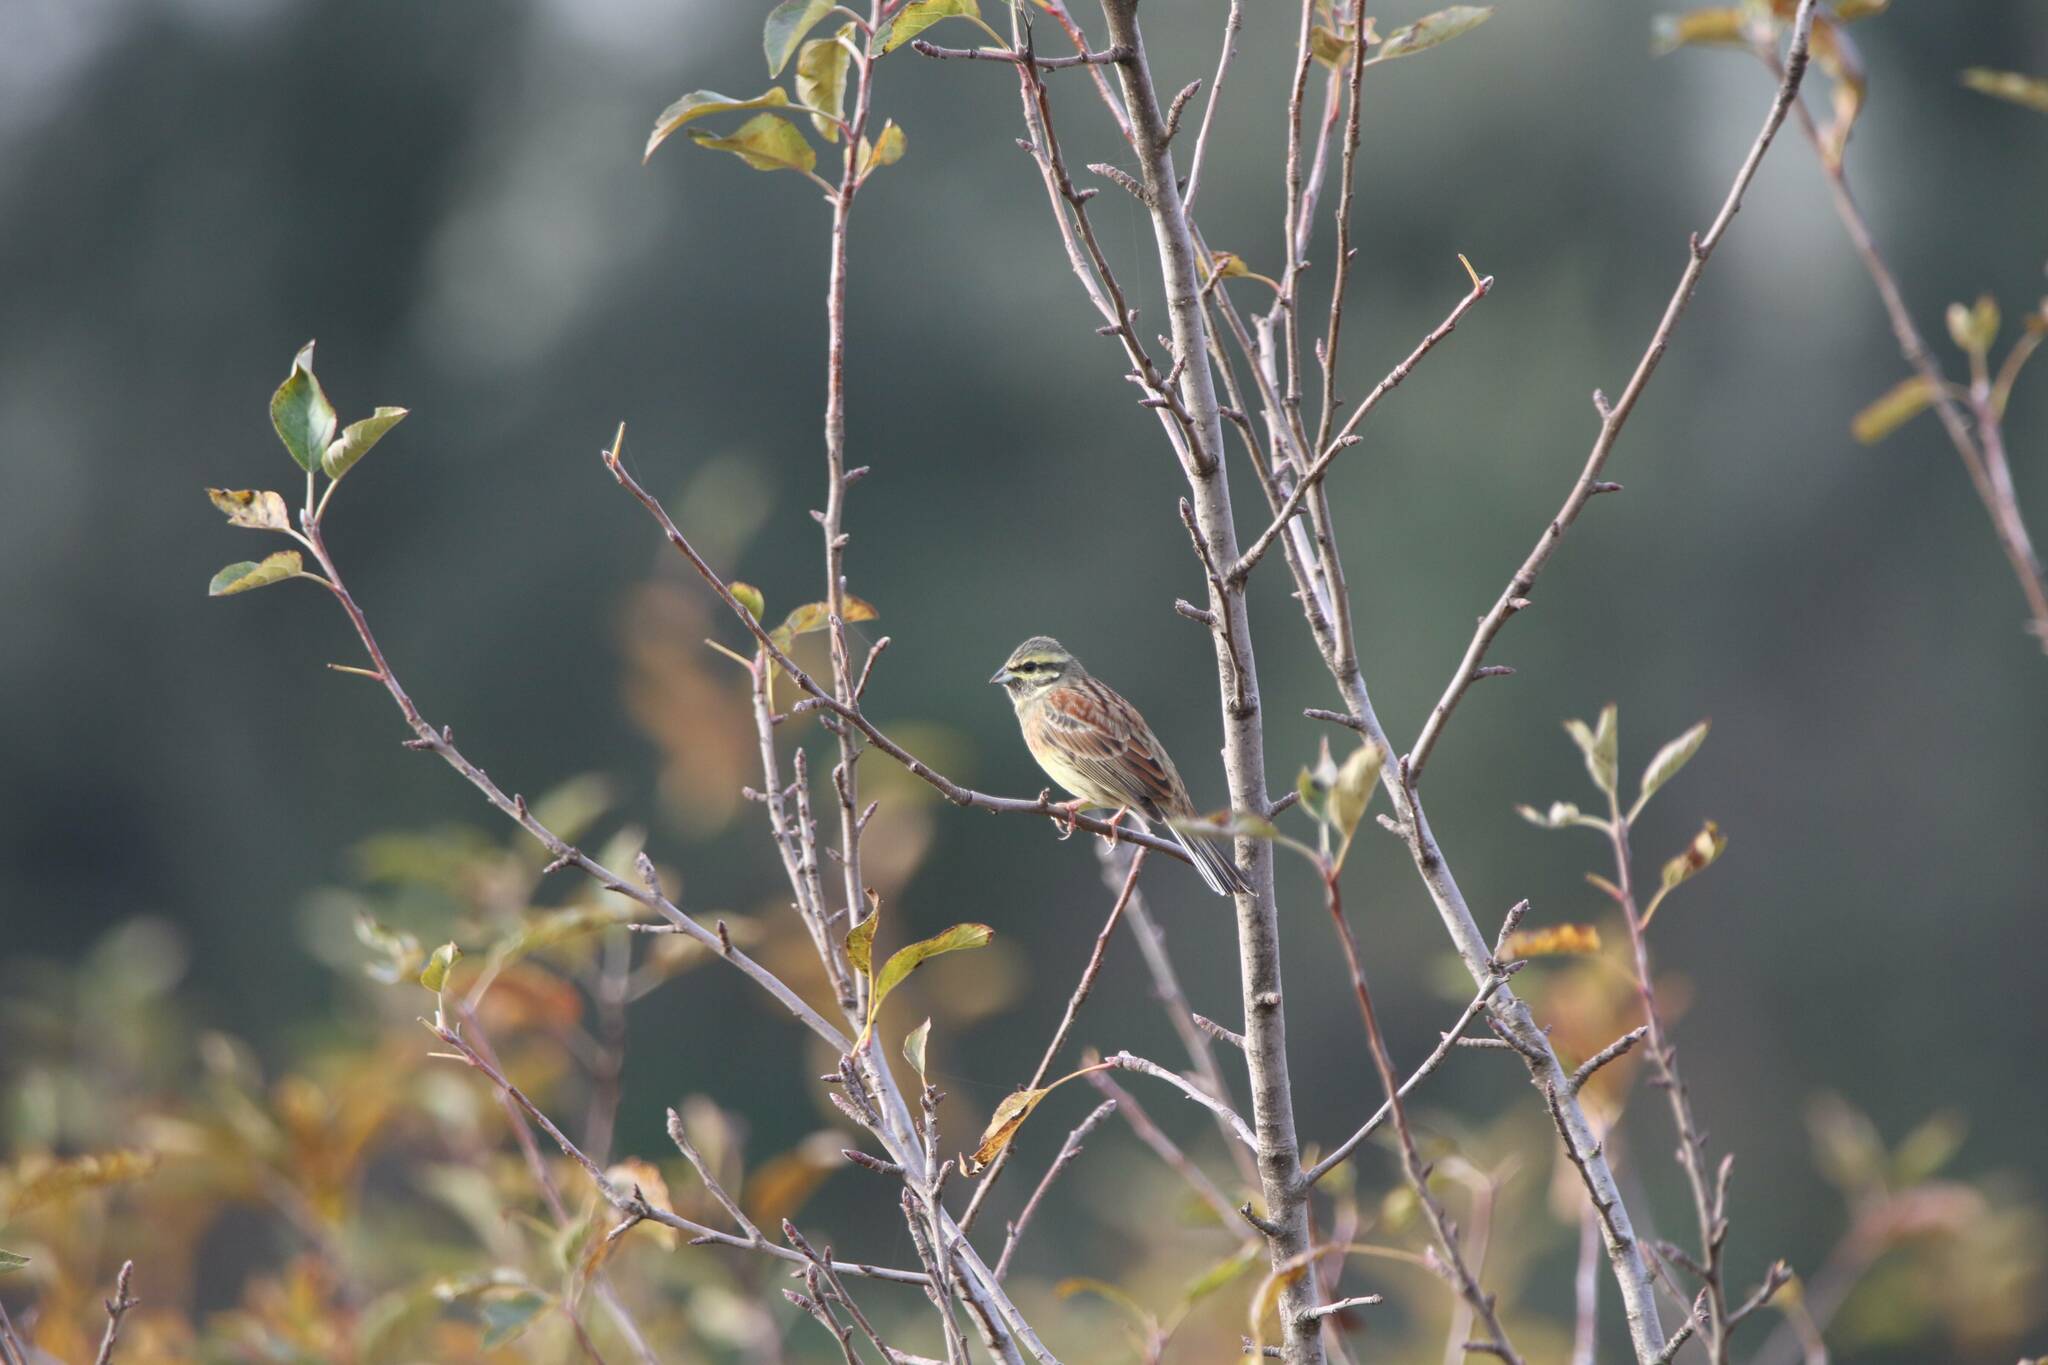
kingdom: Animalia
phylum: Chordata
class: Aves
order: Passeriformes
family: Emberizidae
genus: Emberiza
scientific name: Emberiza cirlus
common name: Cirl bunting
